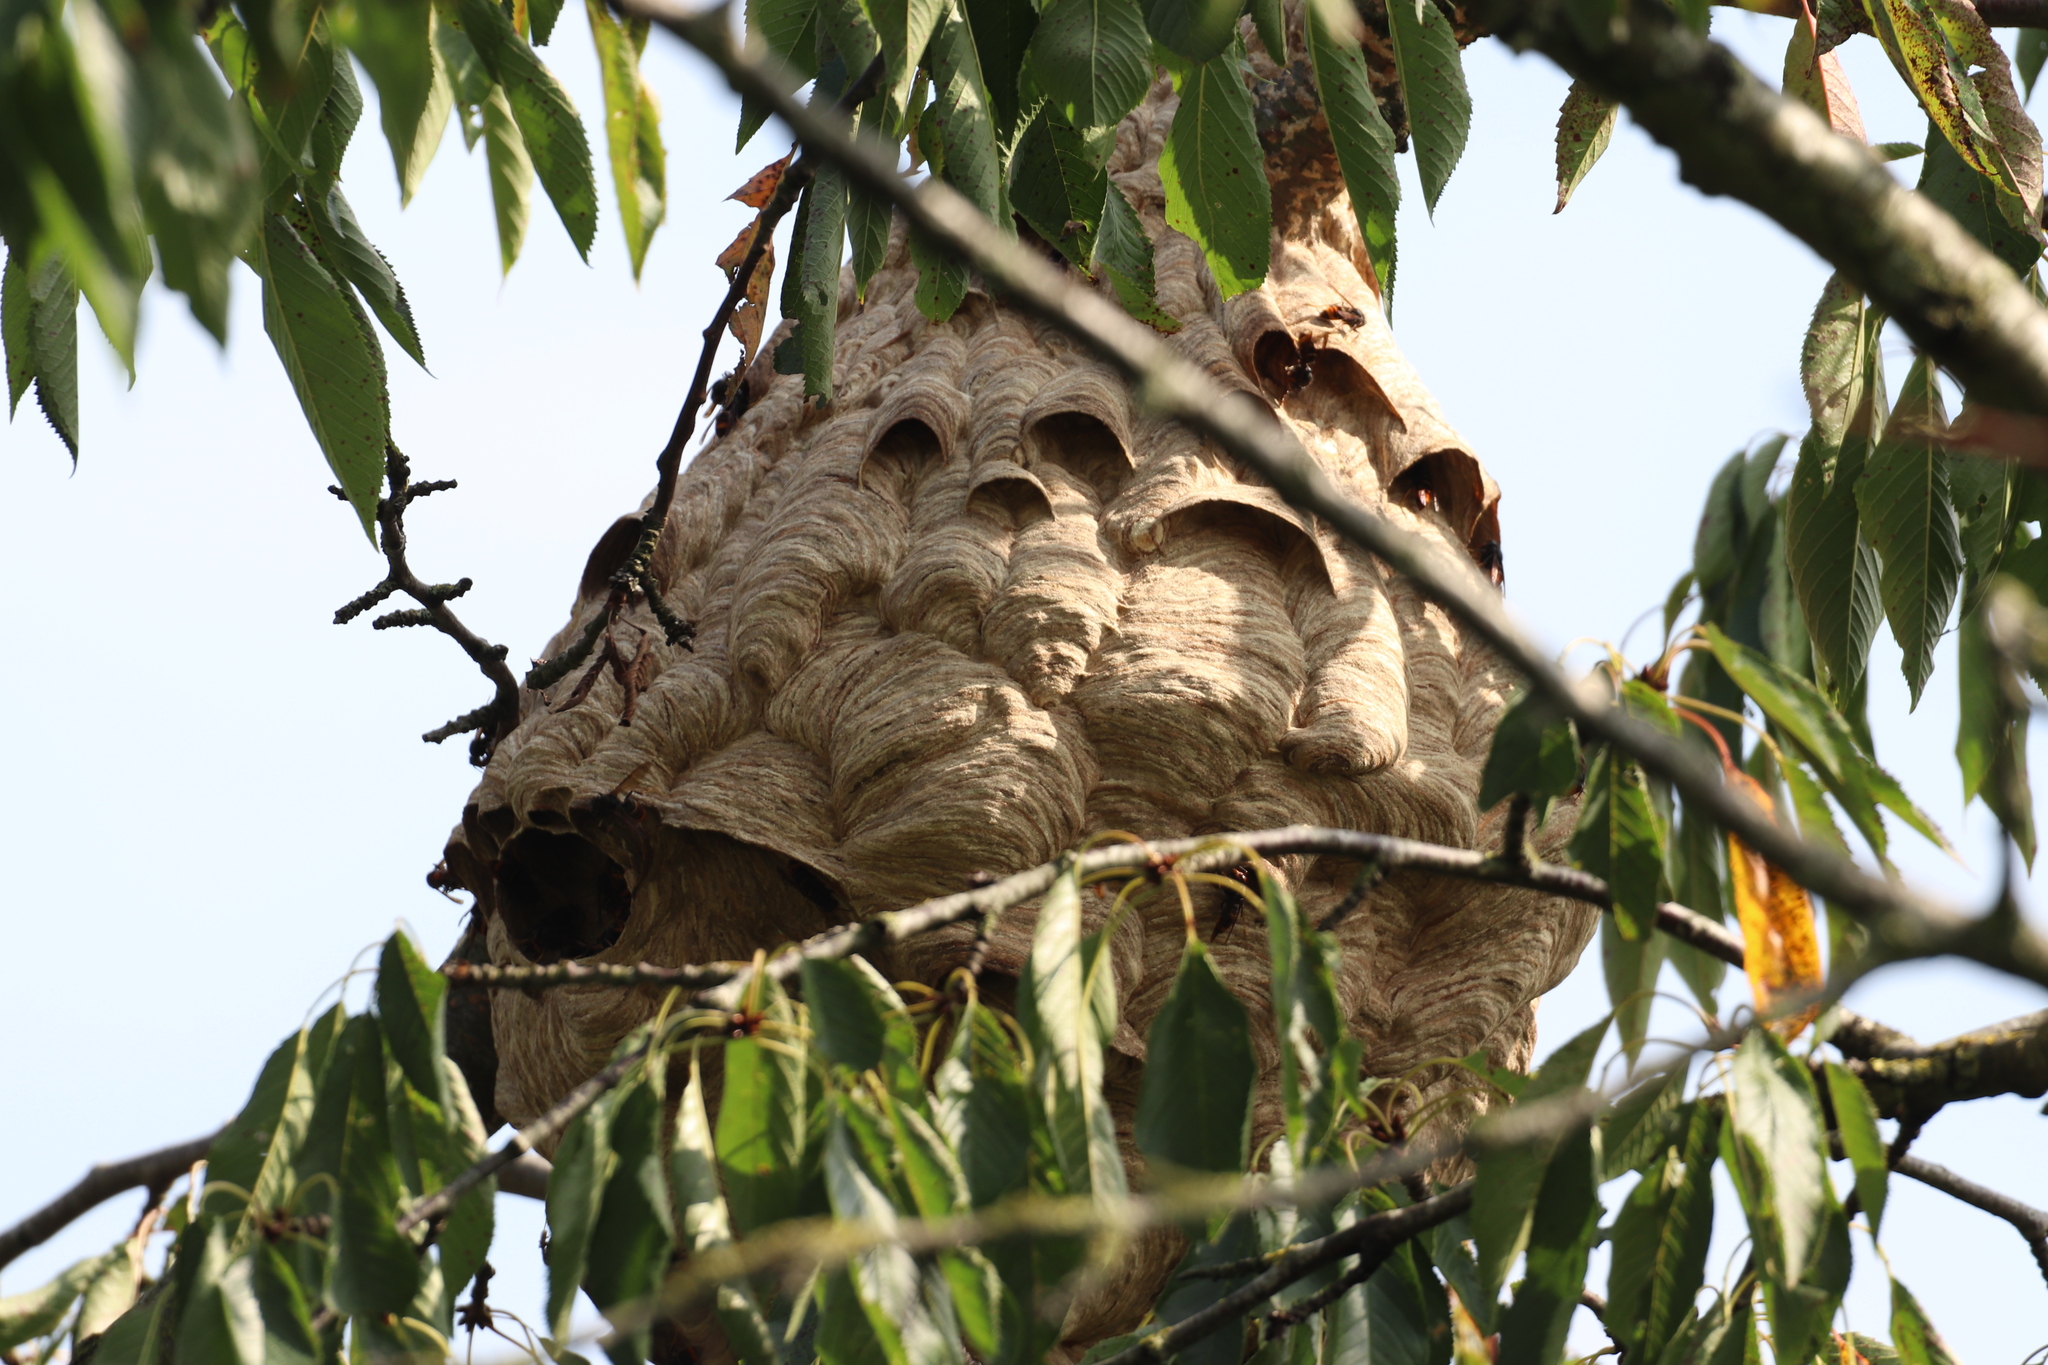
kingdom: Animalia
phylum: Arthropoda
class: Insecta
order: Hymenoptera
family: Vespidae
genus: Vespa
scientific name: Vespa velutina
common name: Asian hornet
